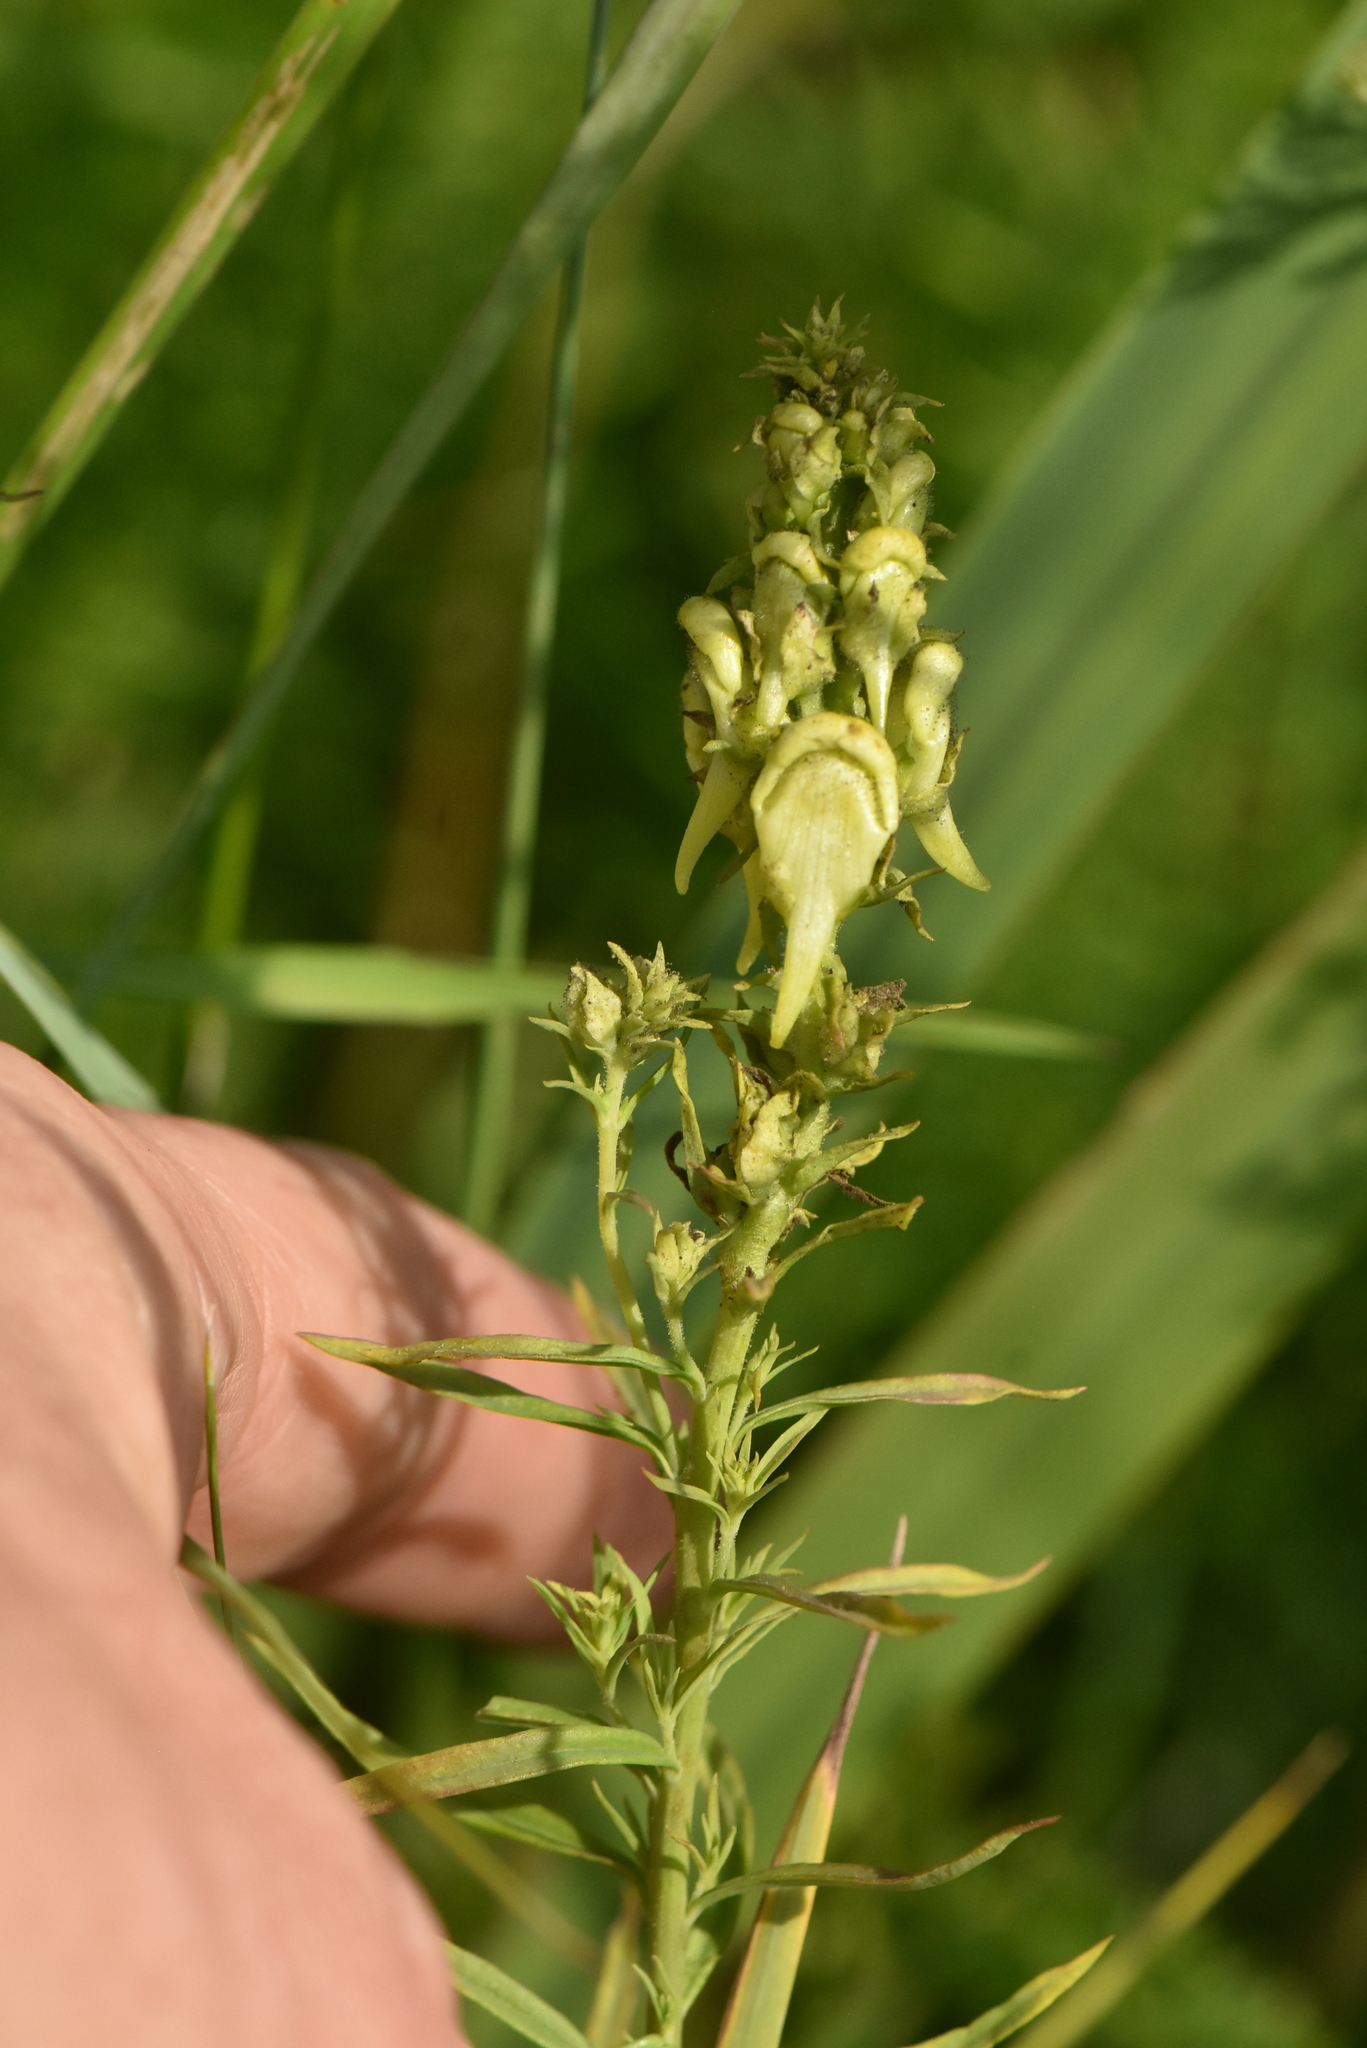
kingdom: Plantae
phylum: Tracheophyta
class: Magnoliopsida
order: Lamiales
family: Plantaginaceae
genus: Linaria
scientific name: Linaria vulgaris
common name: Butter and eggs
